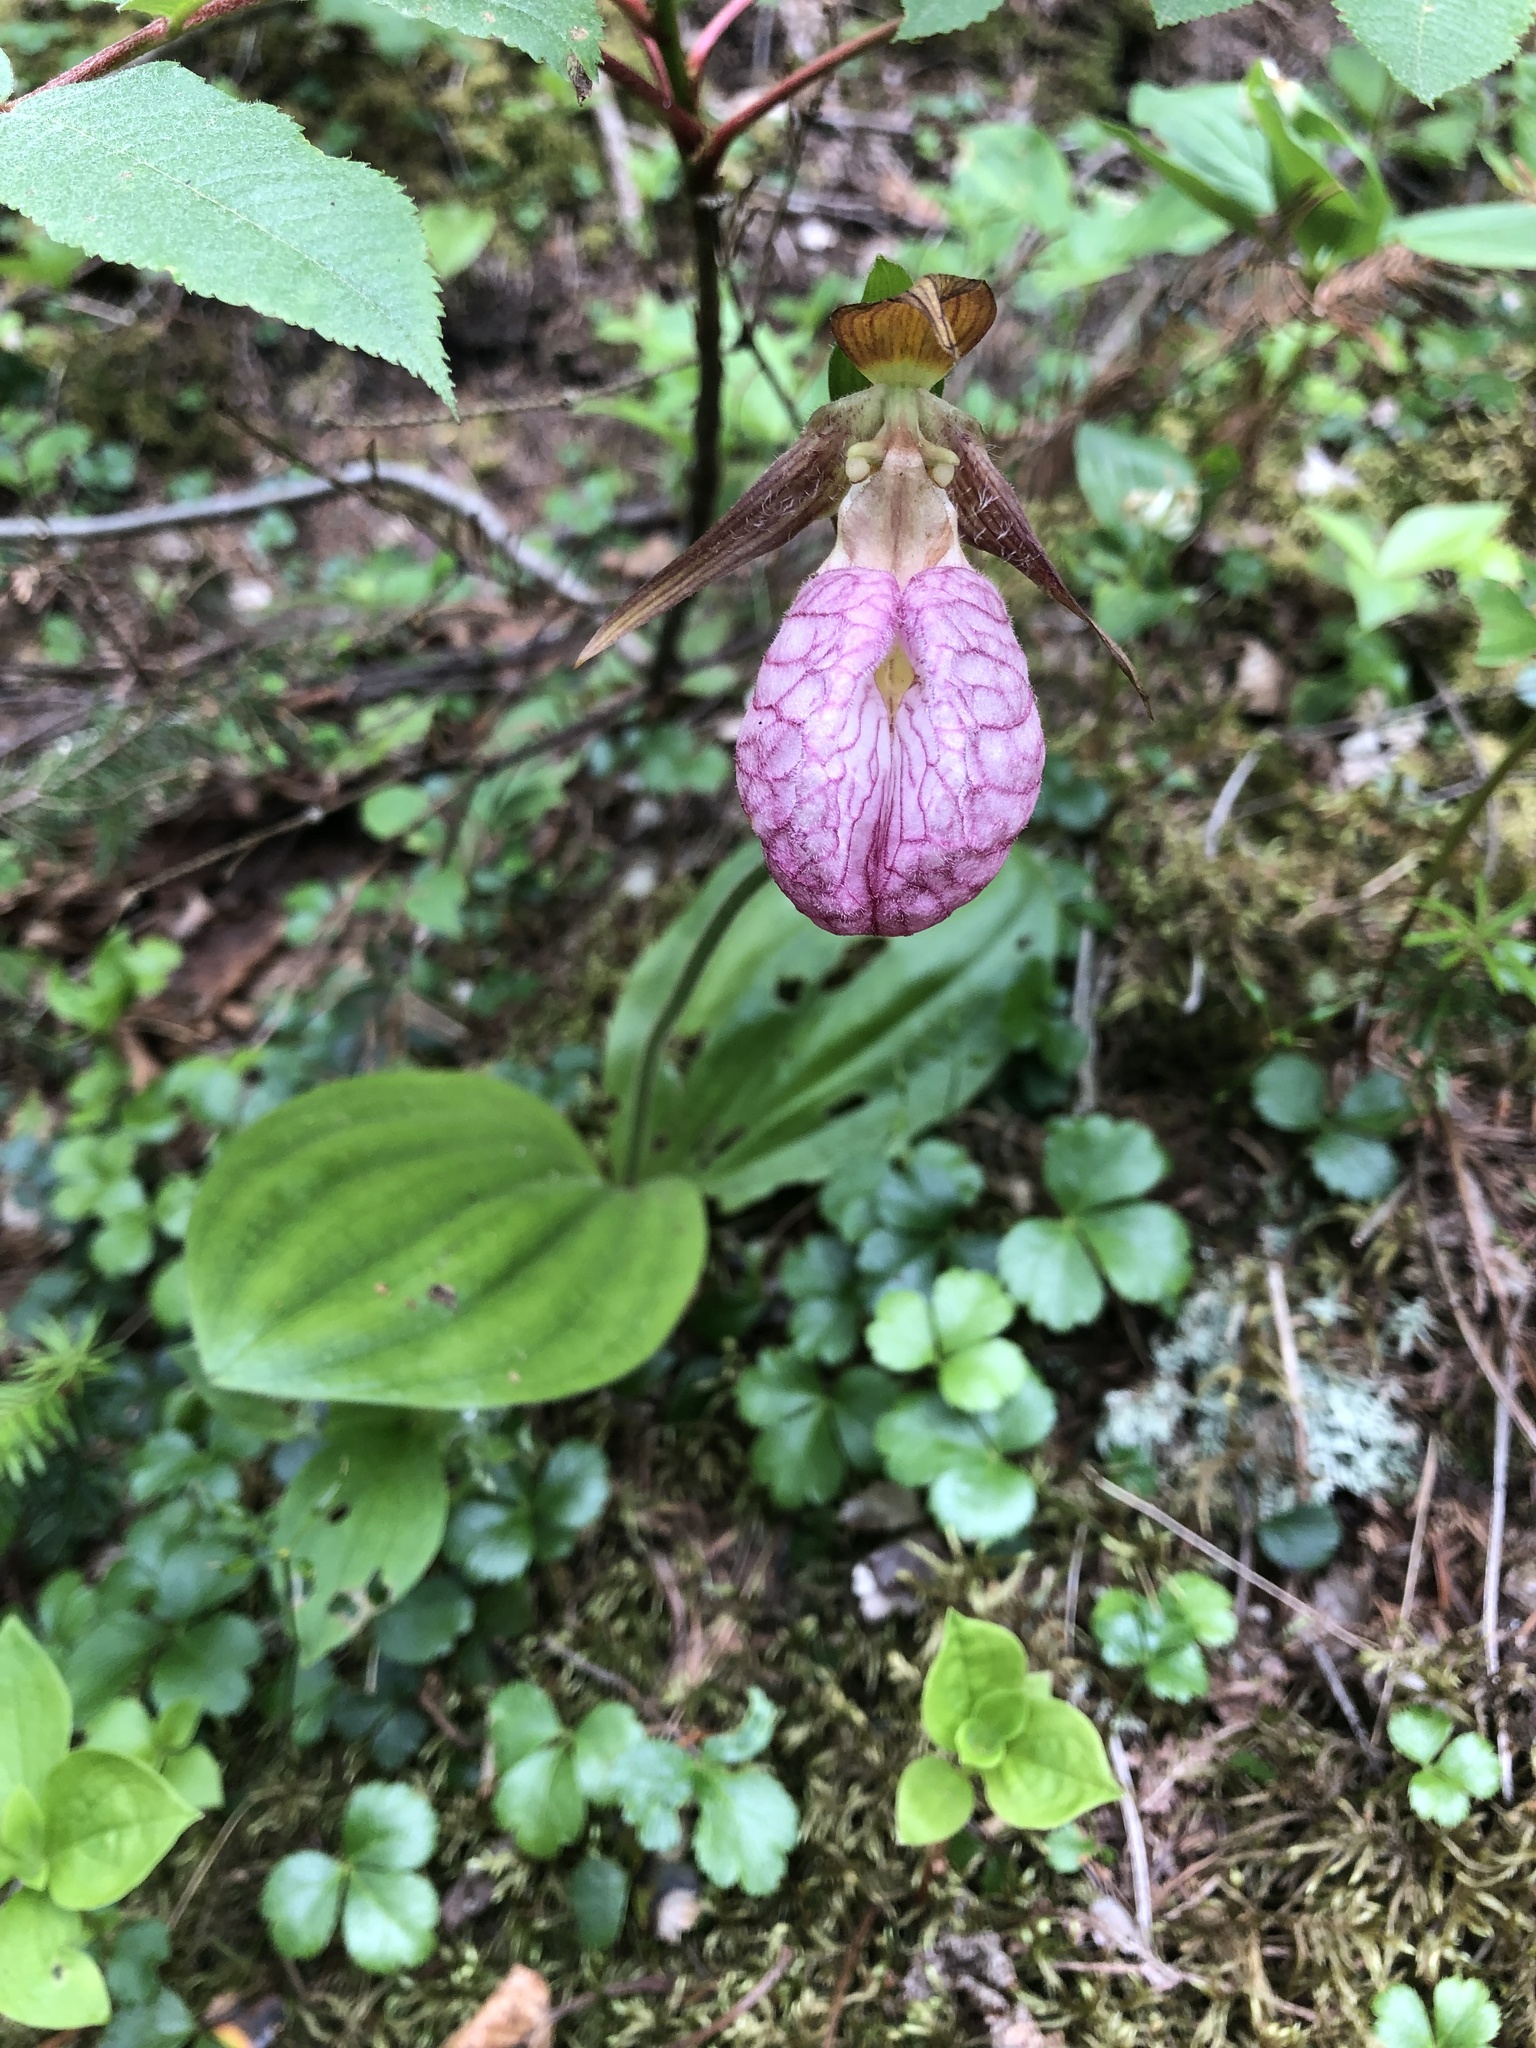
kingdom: Plantae
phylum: Tracheophyta
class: Liliopsida
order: Asparagales
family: Orchidaceae
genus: Cypripedium
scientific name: Cypripedium acaule
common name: Pink lady's-slipper
